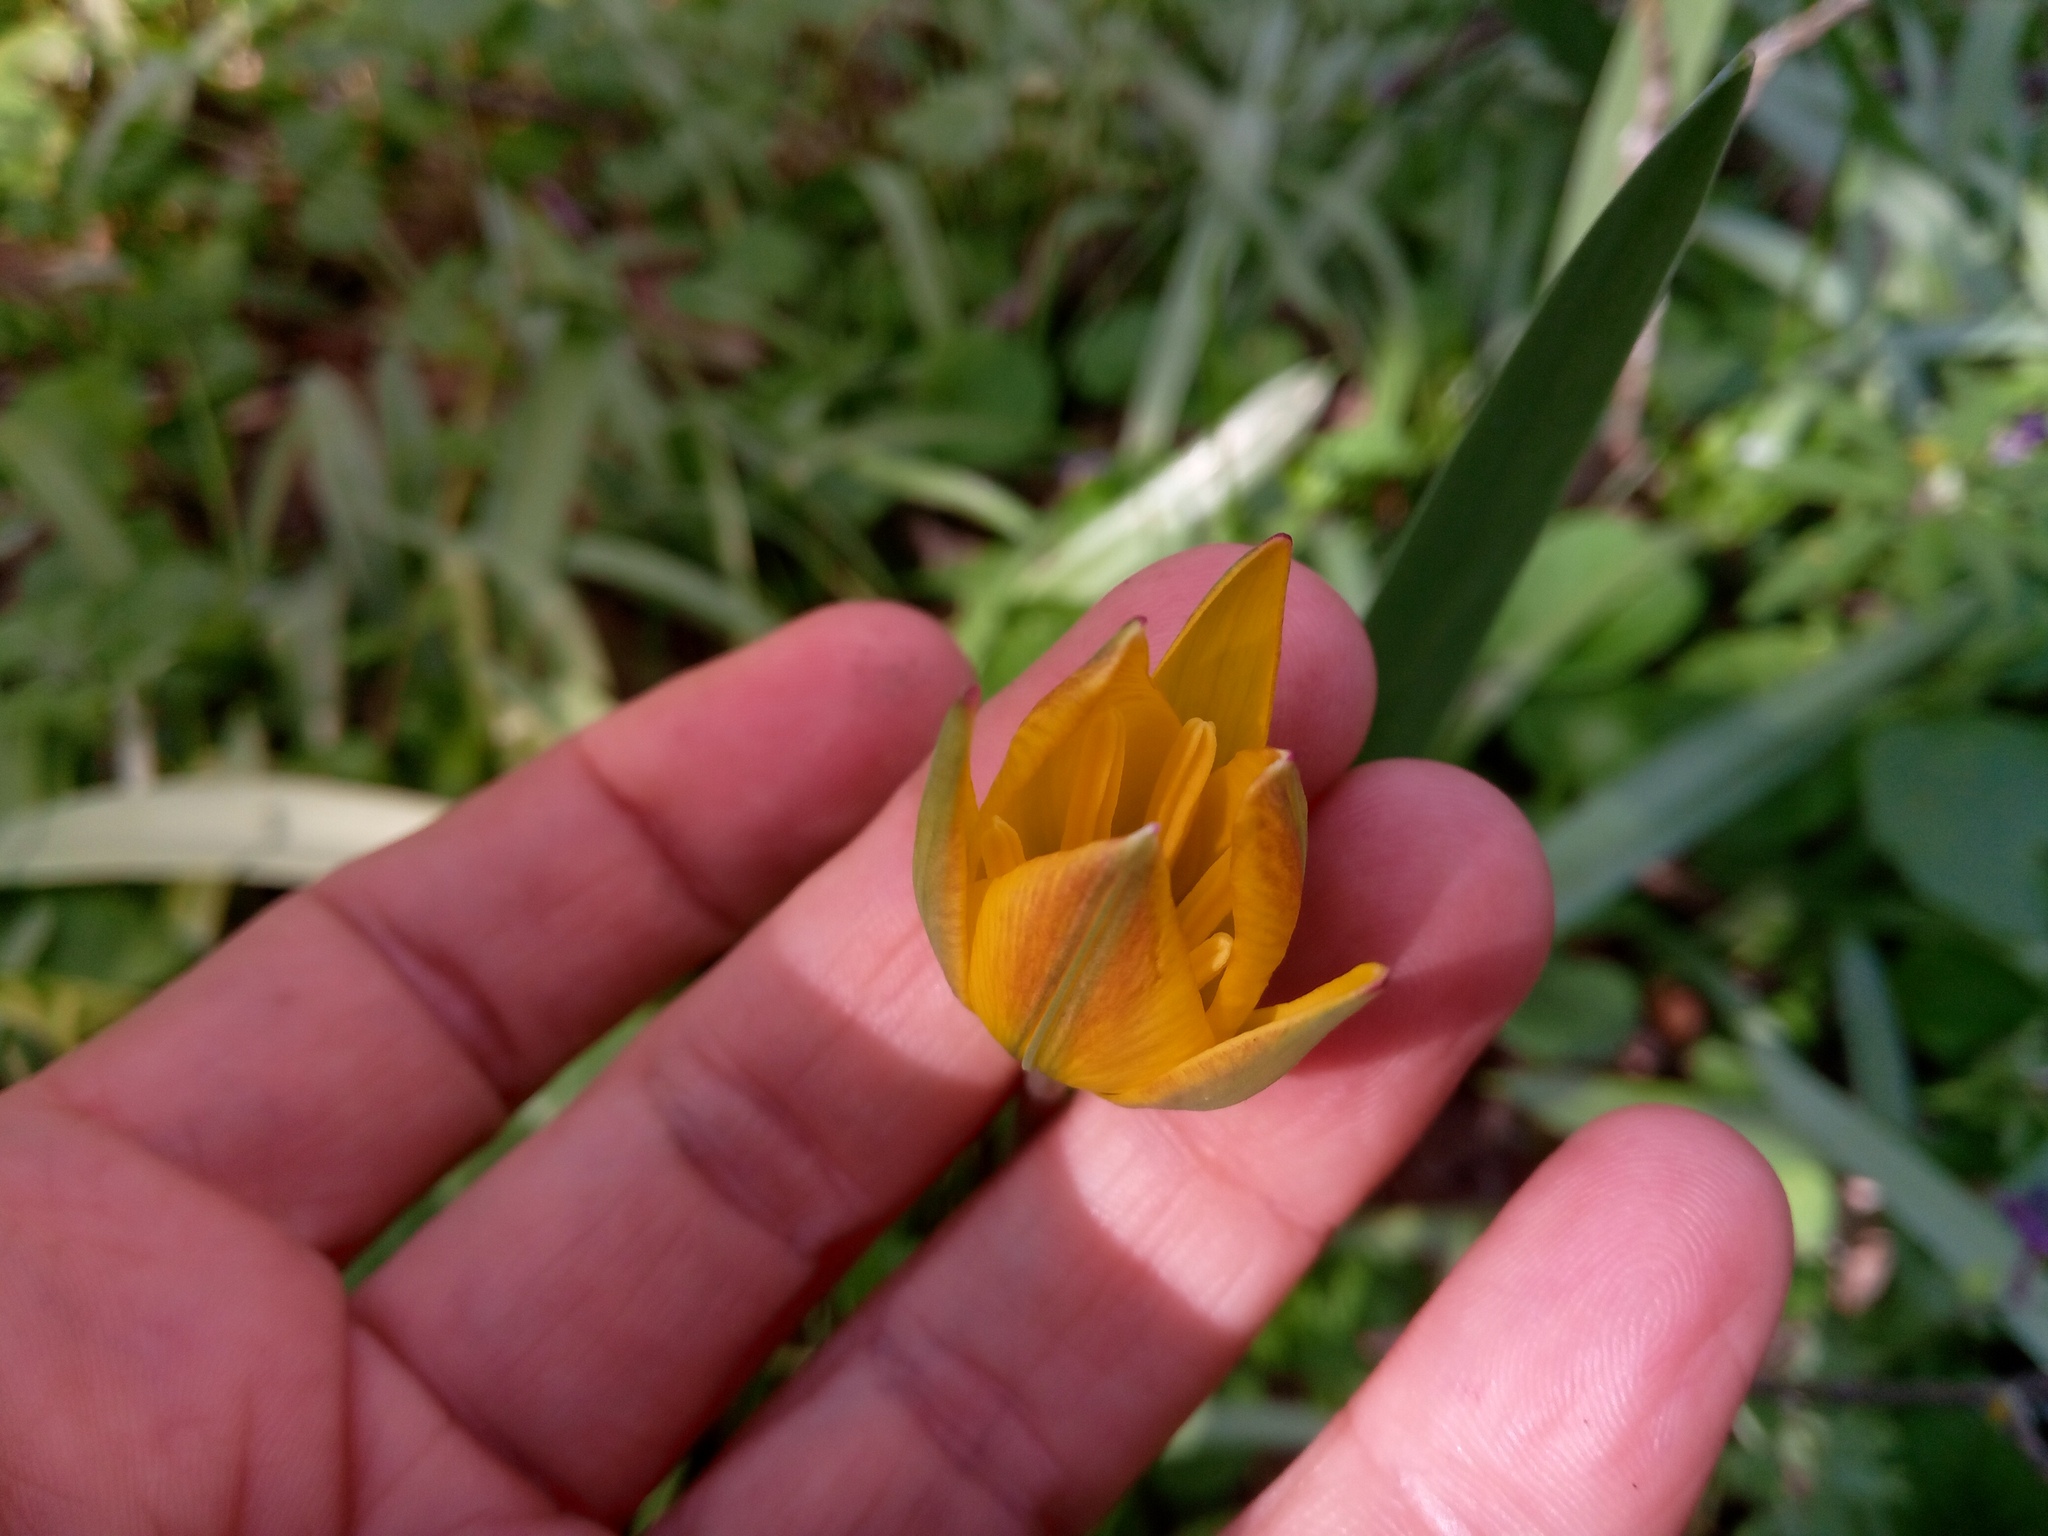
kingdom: Plantae
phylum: Tracheophyta
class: Liliopsida
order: Liliales
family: Liliaceae
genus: Tulipa
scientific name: Tulipa sylvestris
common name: Wild tulip
